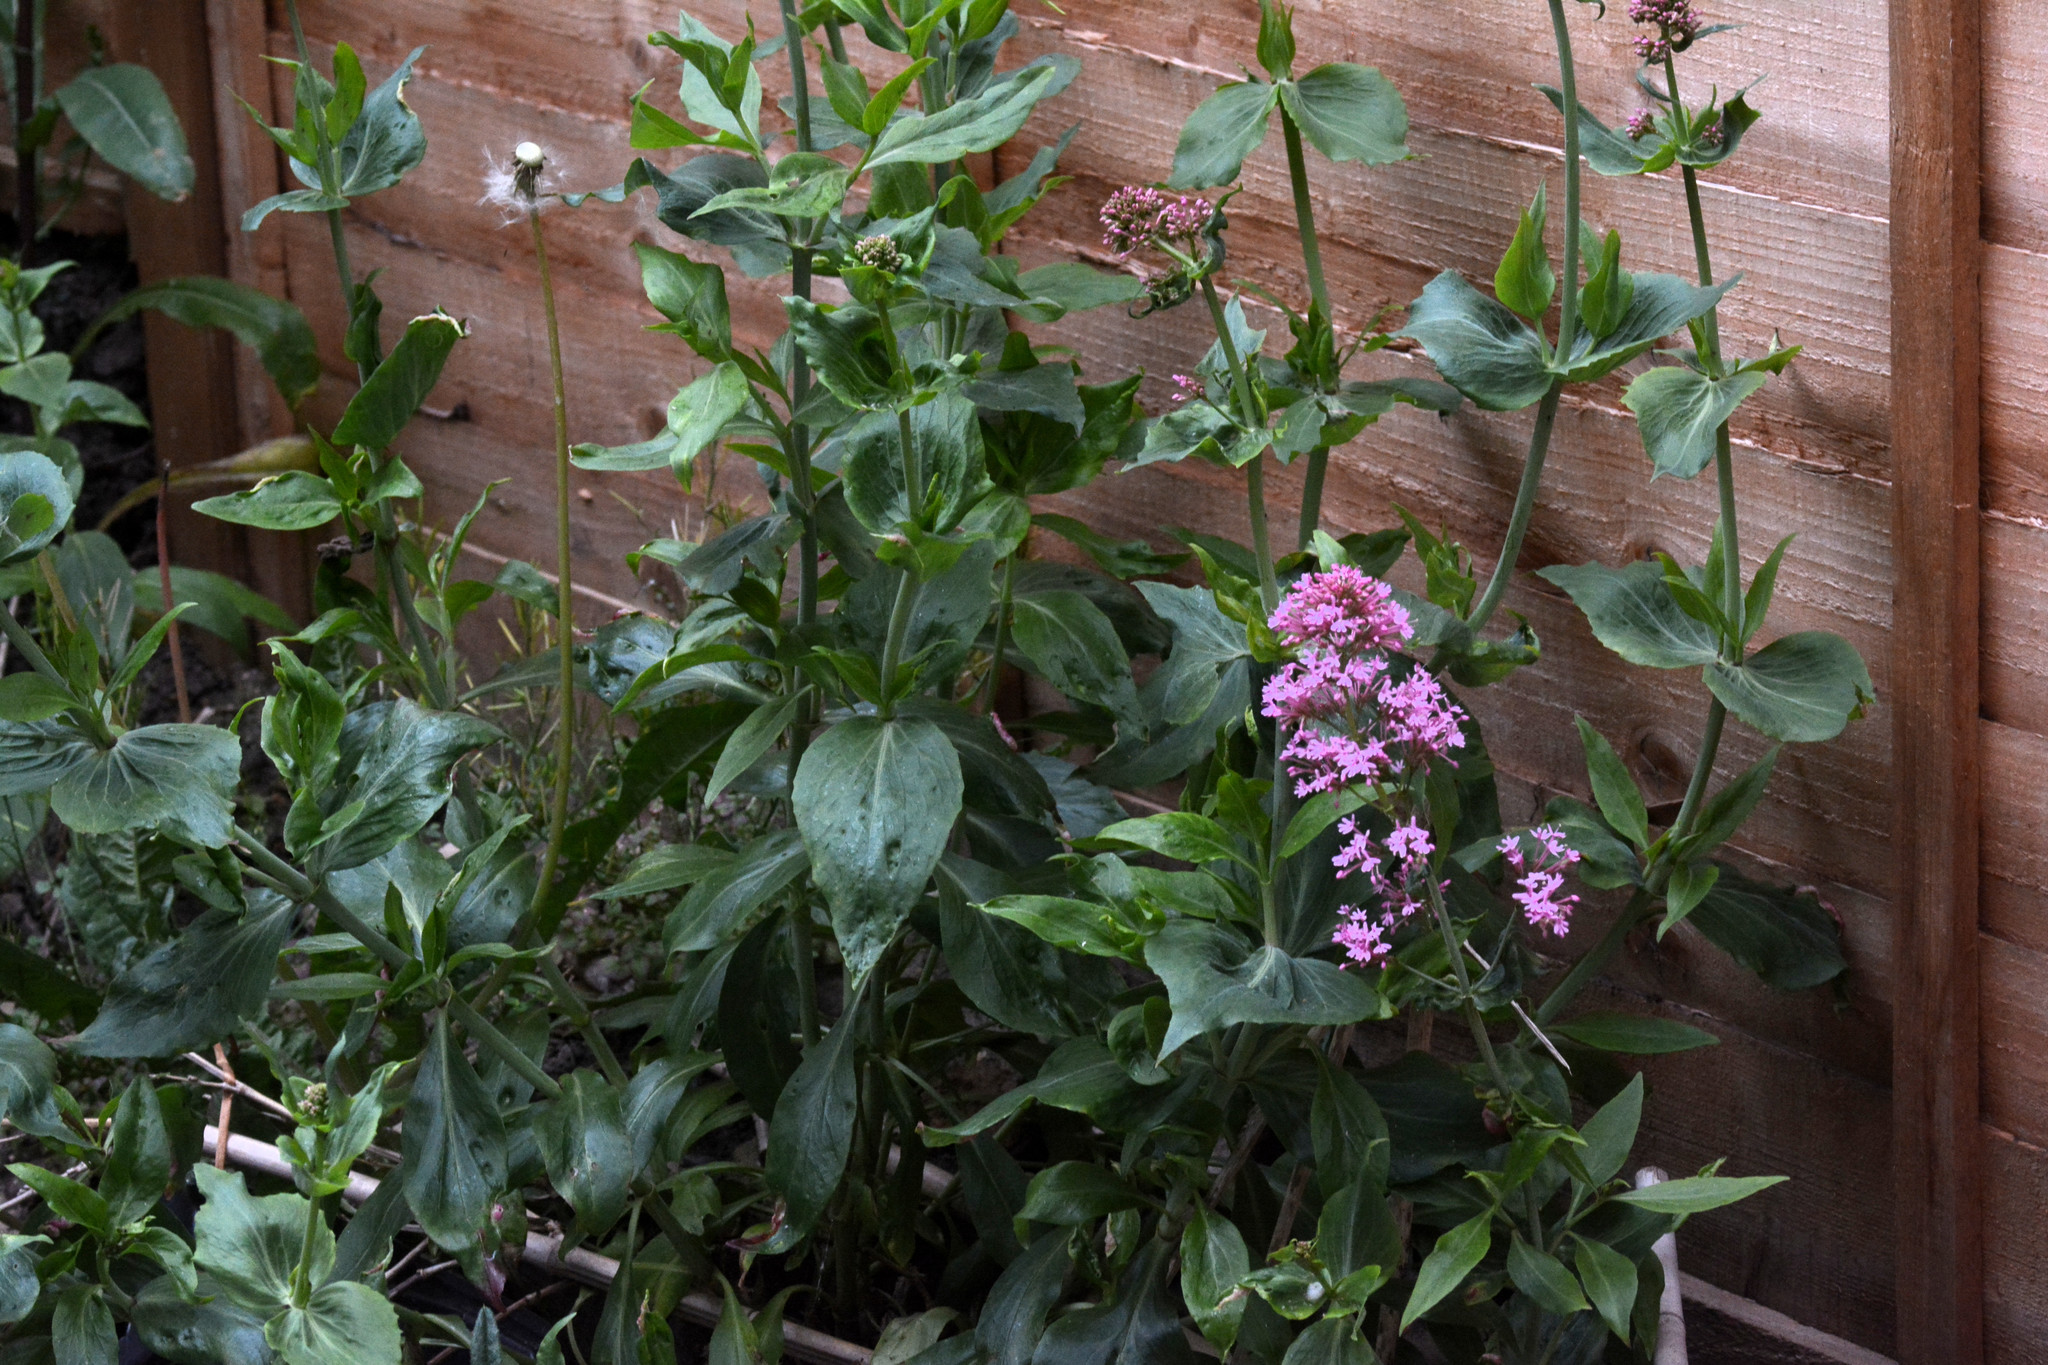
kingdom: Plantae
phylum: Tracheophyta
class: Magnoliopsida
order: Dipsacales
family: Caprifoliaceae
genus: Centranthus
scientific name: Centranthus ruber
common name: Red valerian
